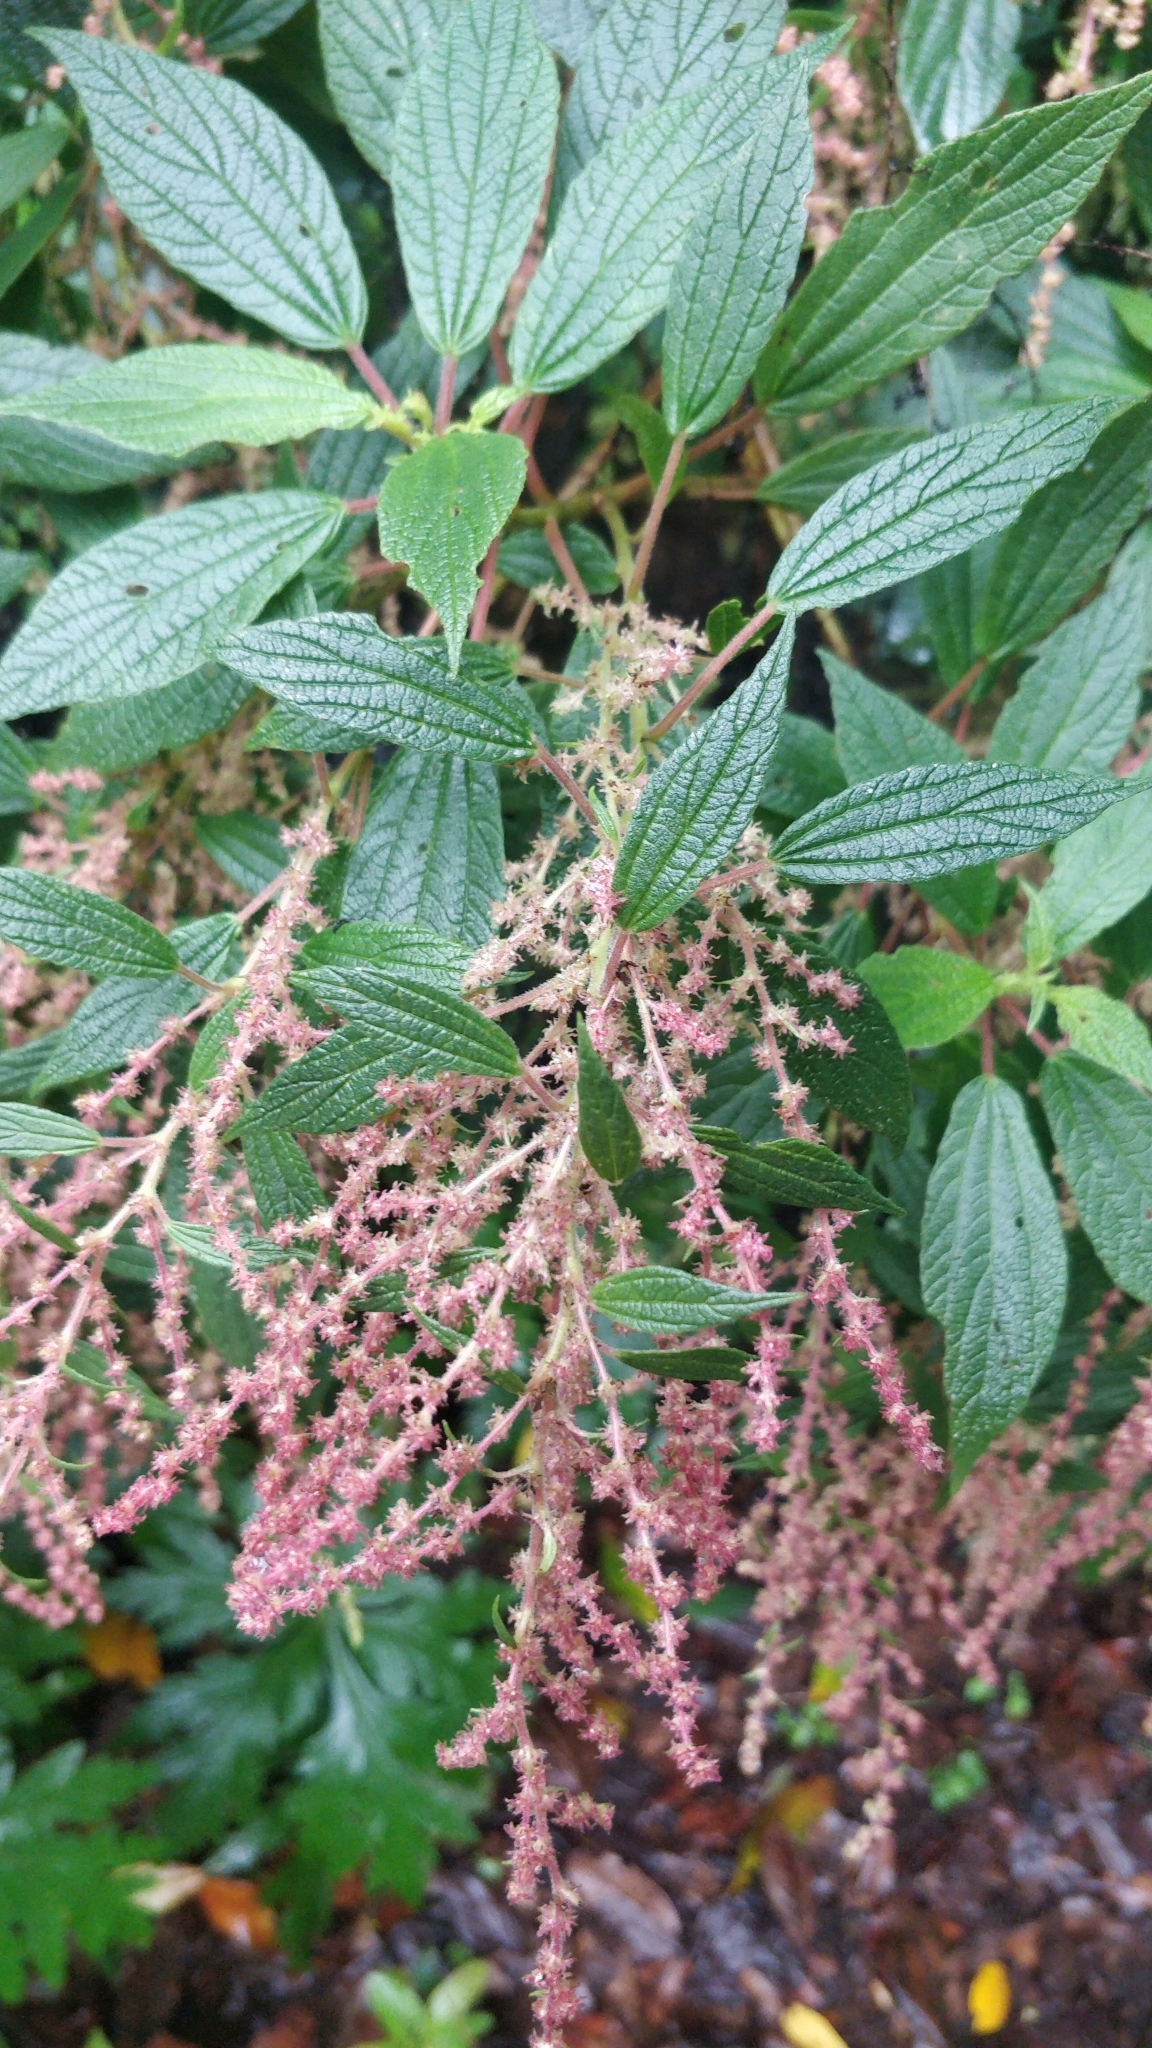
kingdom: Plantae
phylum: Tracheophyta
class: Magnoliopsida
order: Rosales
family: Urticaceae
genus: Gesnouinia
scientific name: Gesnouinia arborea
